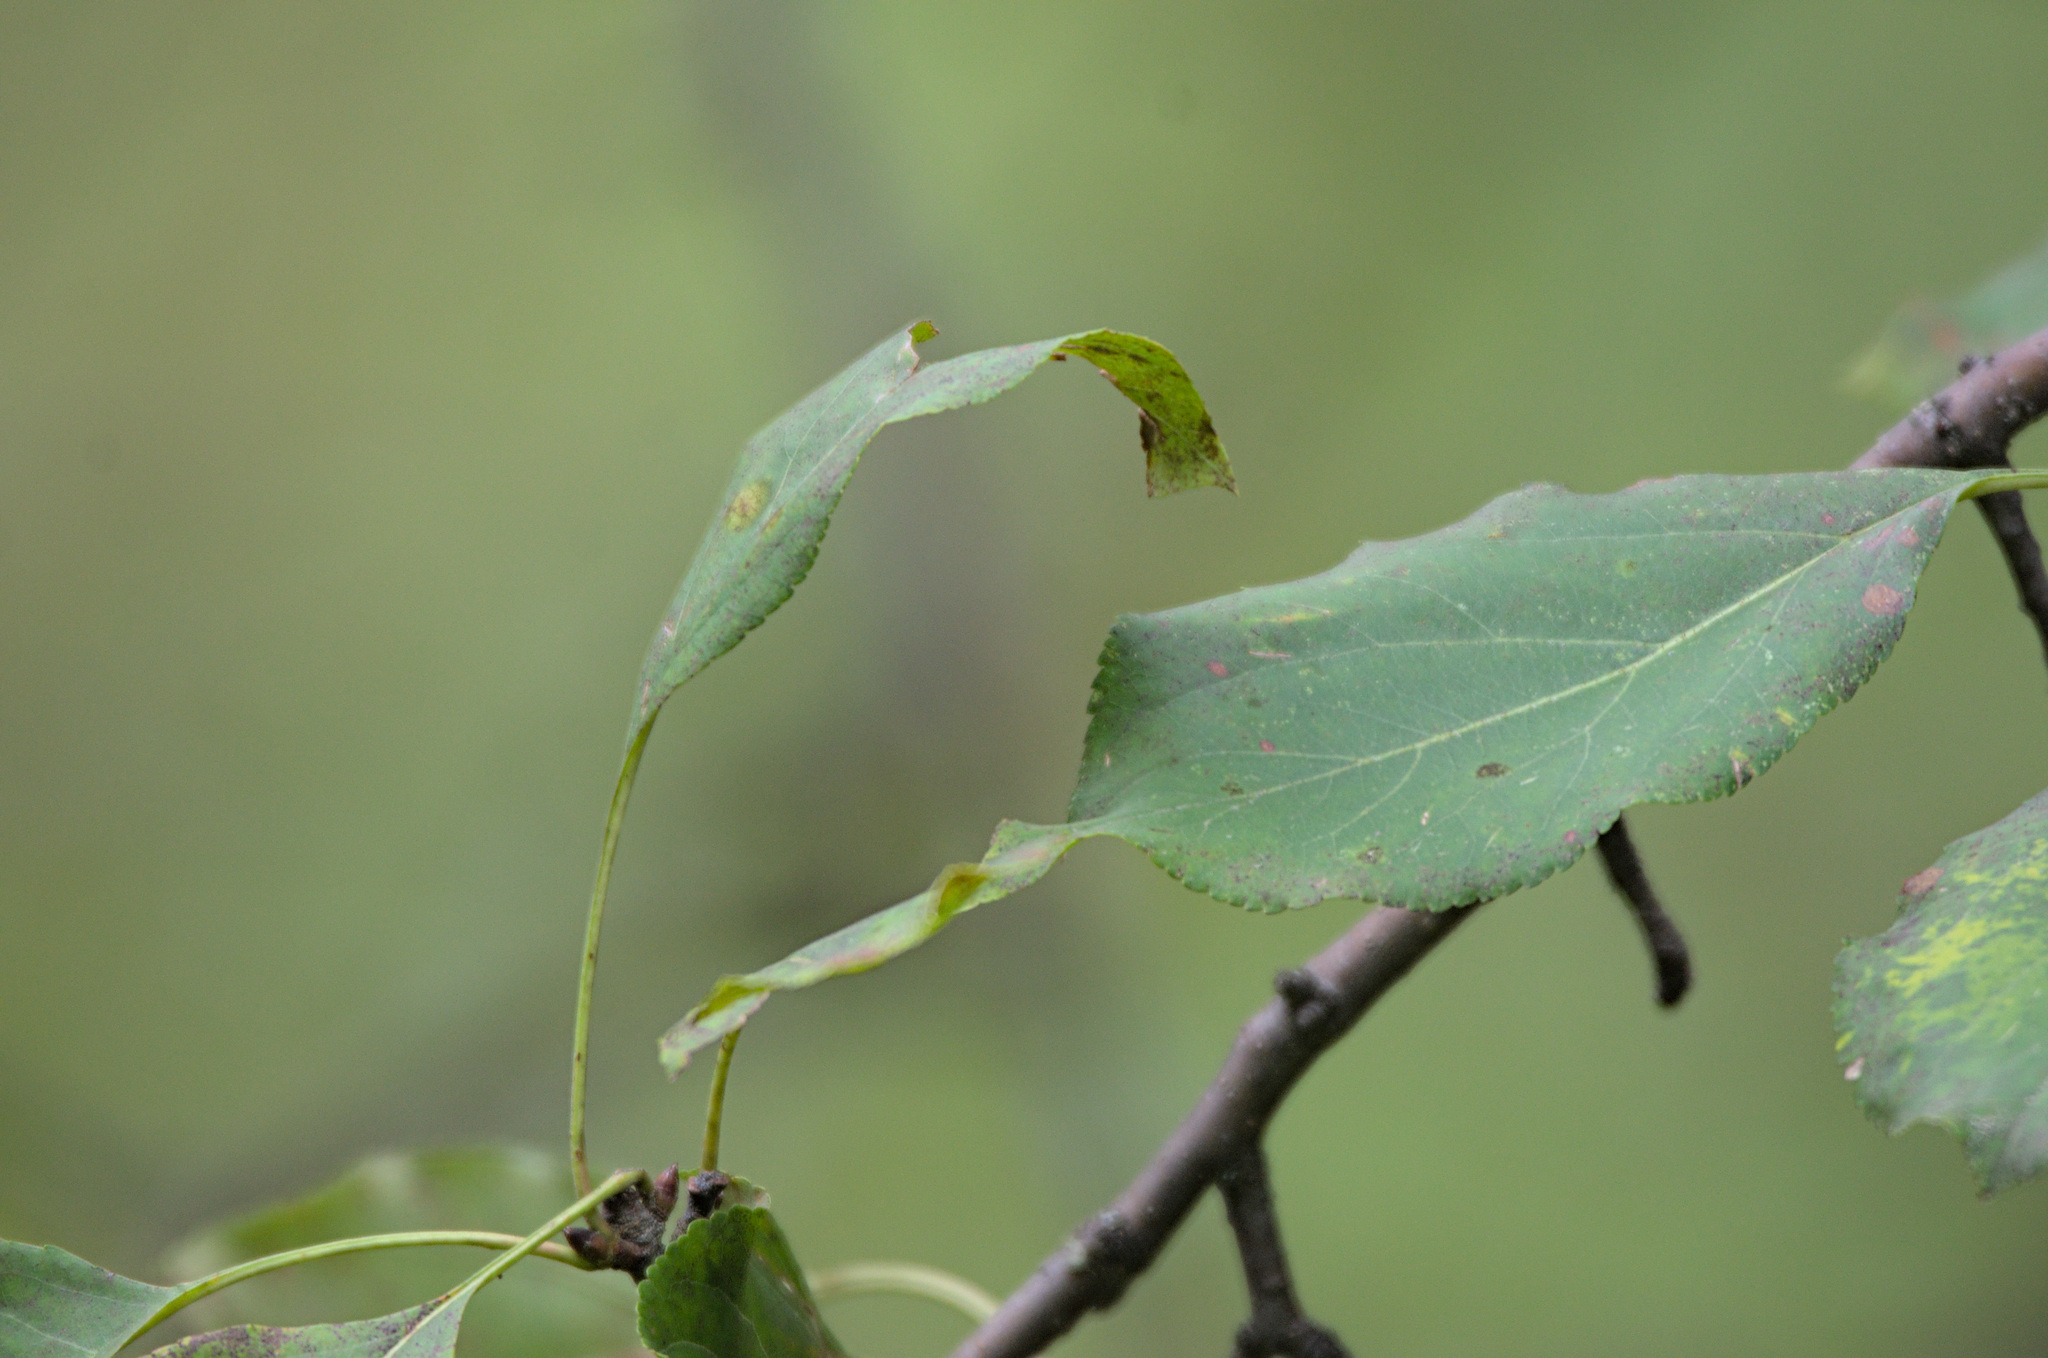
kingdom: Plantae
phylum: Tracheophyta
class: Magnoliopsida
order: Rosales
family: Rosaceae
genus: Malus
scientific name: Malus baccata
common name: Siberian crab
